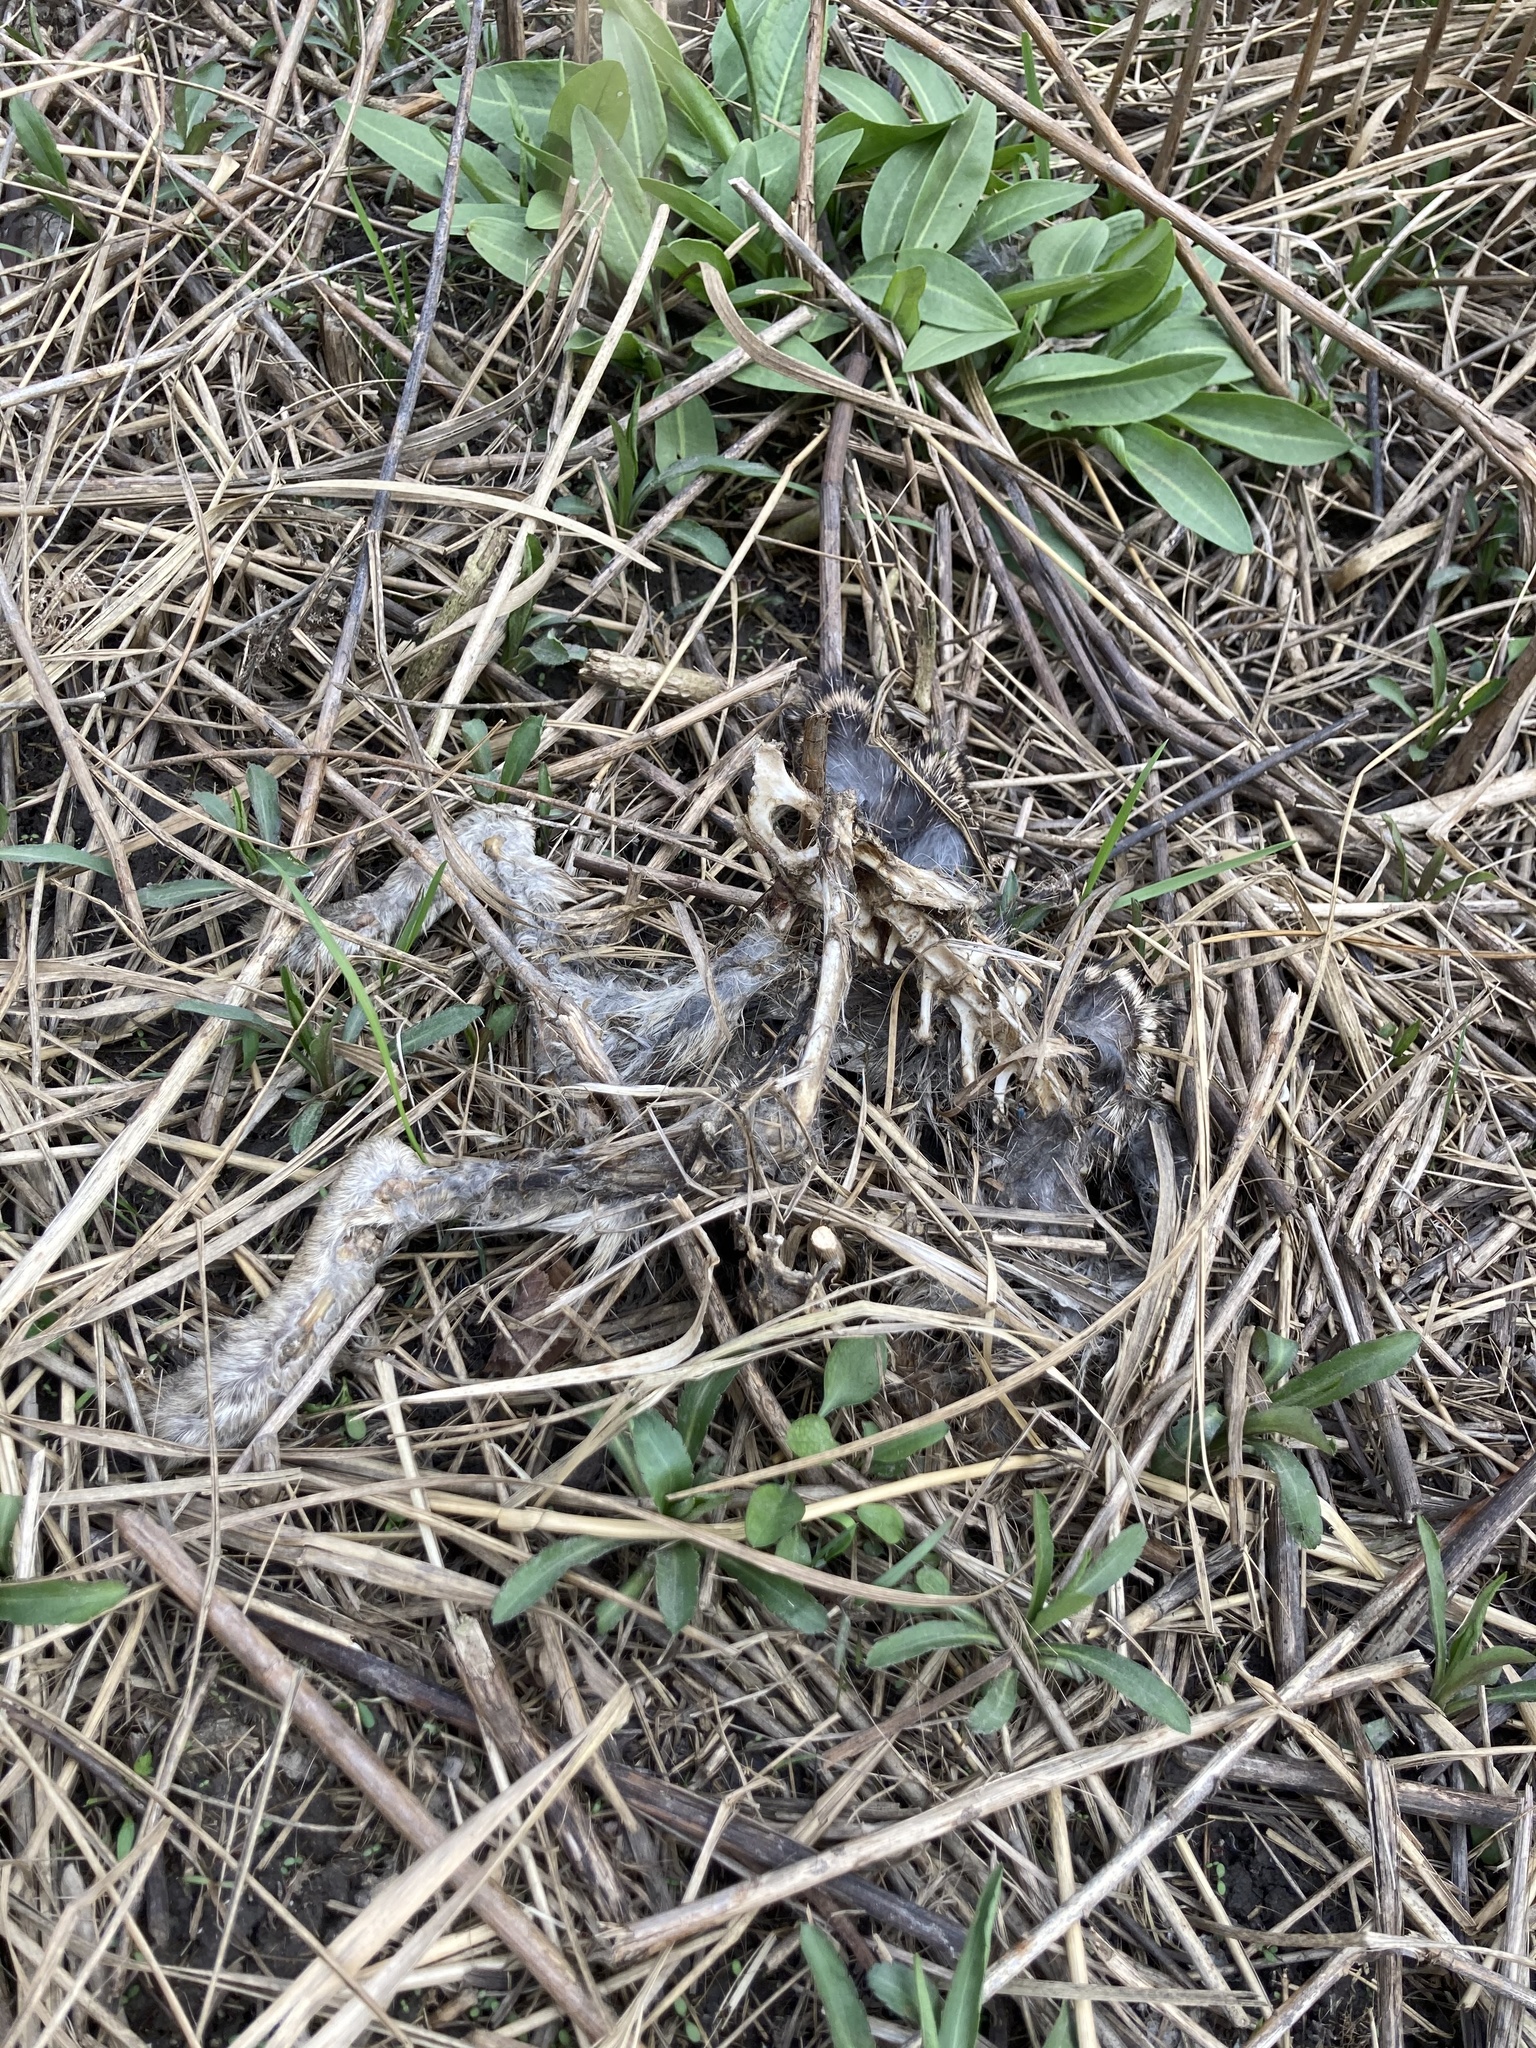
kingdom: Animalia
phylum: Chordata
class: Mammalia
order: Lagomorpha
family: Leporidae
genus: Sylvilagus
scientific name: Sylvilagus floridanus
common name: Eastern cottontail
